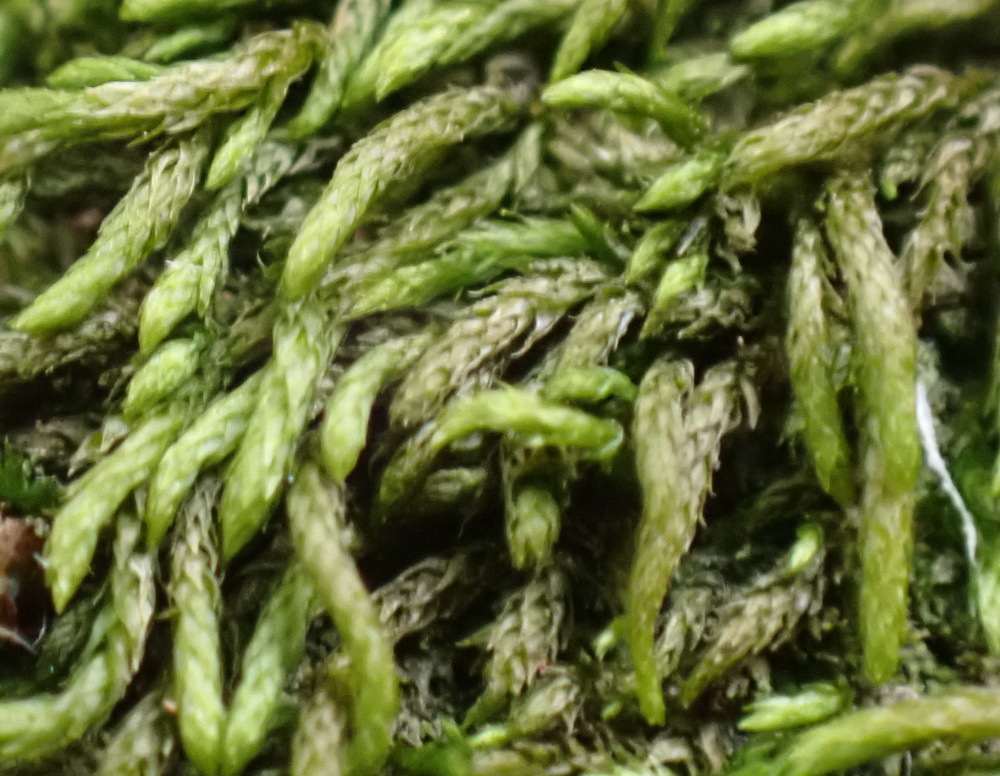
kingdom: Plantae
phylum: Bryophyta
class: Bryopsida
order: Hypnales
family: Leskeaceae
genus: Lindbergia
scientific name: Lindbergia pseudoleskeoides
